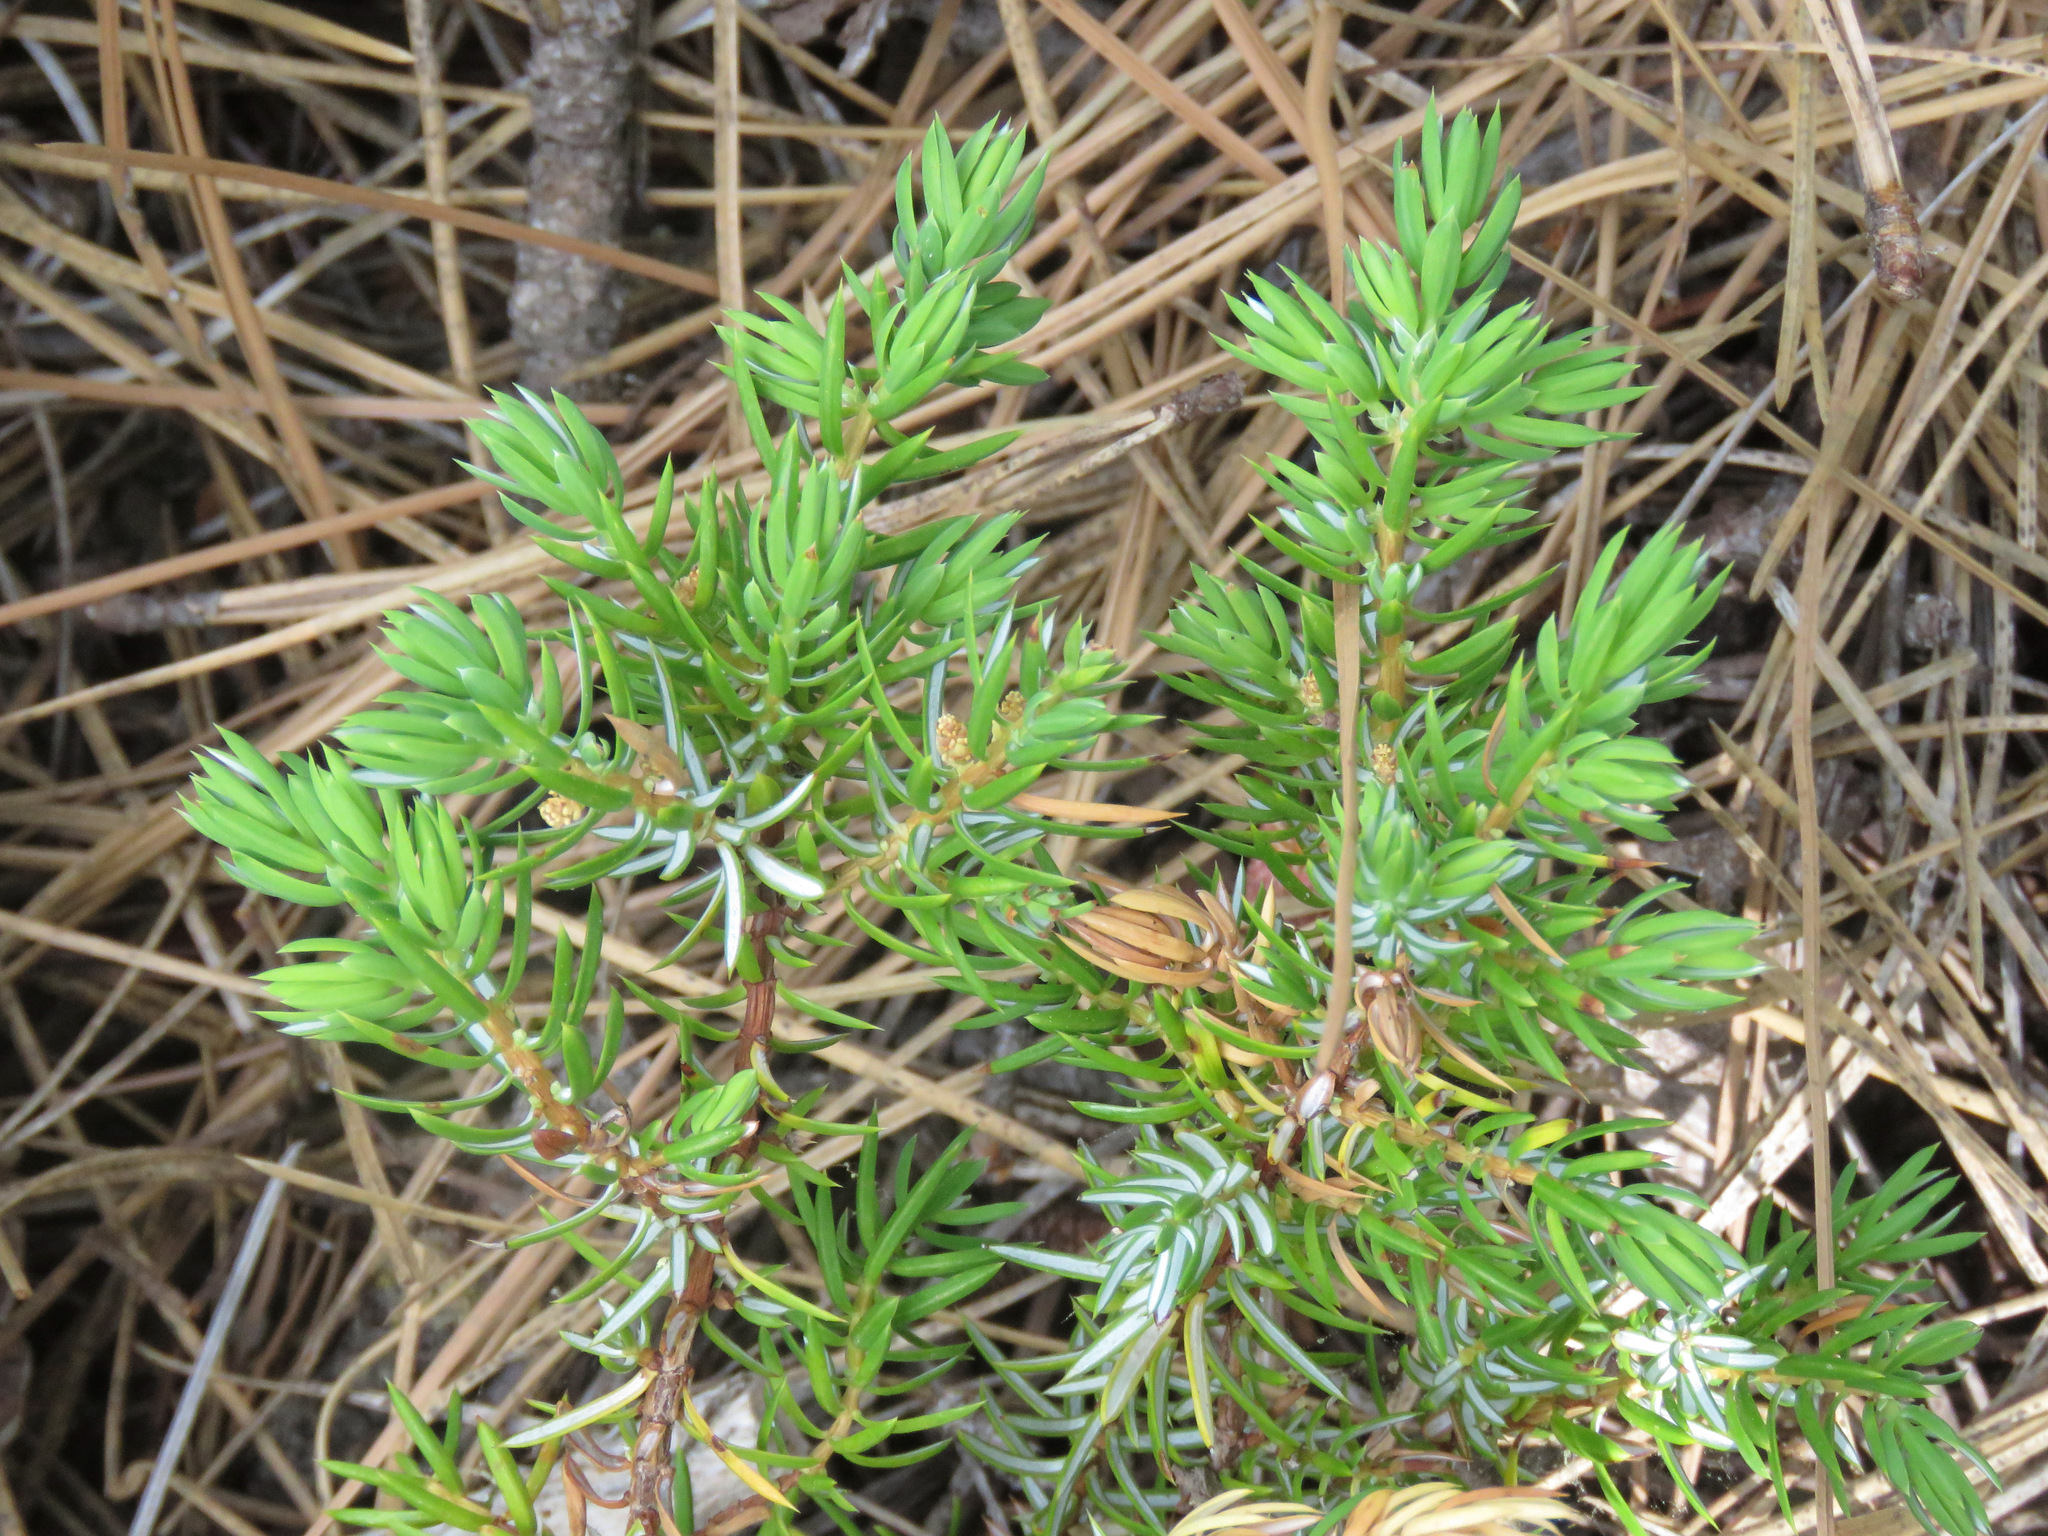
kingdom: Plantae
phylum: Tracheophyta
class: Pinopsida
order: Pinales
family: Cupressaceae
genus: Juniperus
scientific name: Juniperus communis
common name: Common juniper
